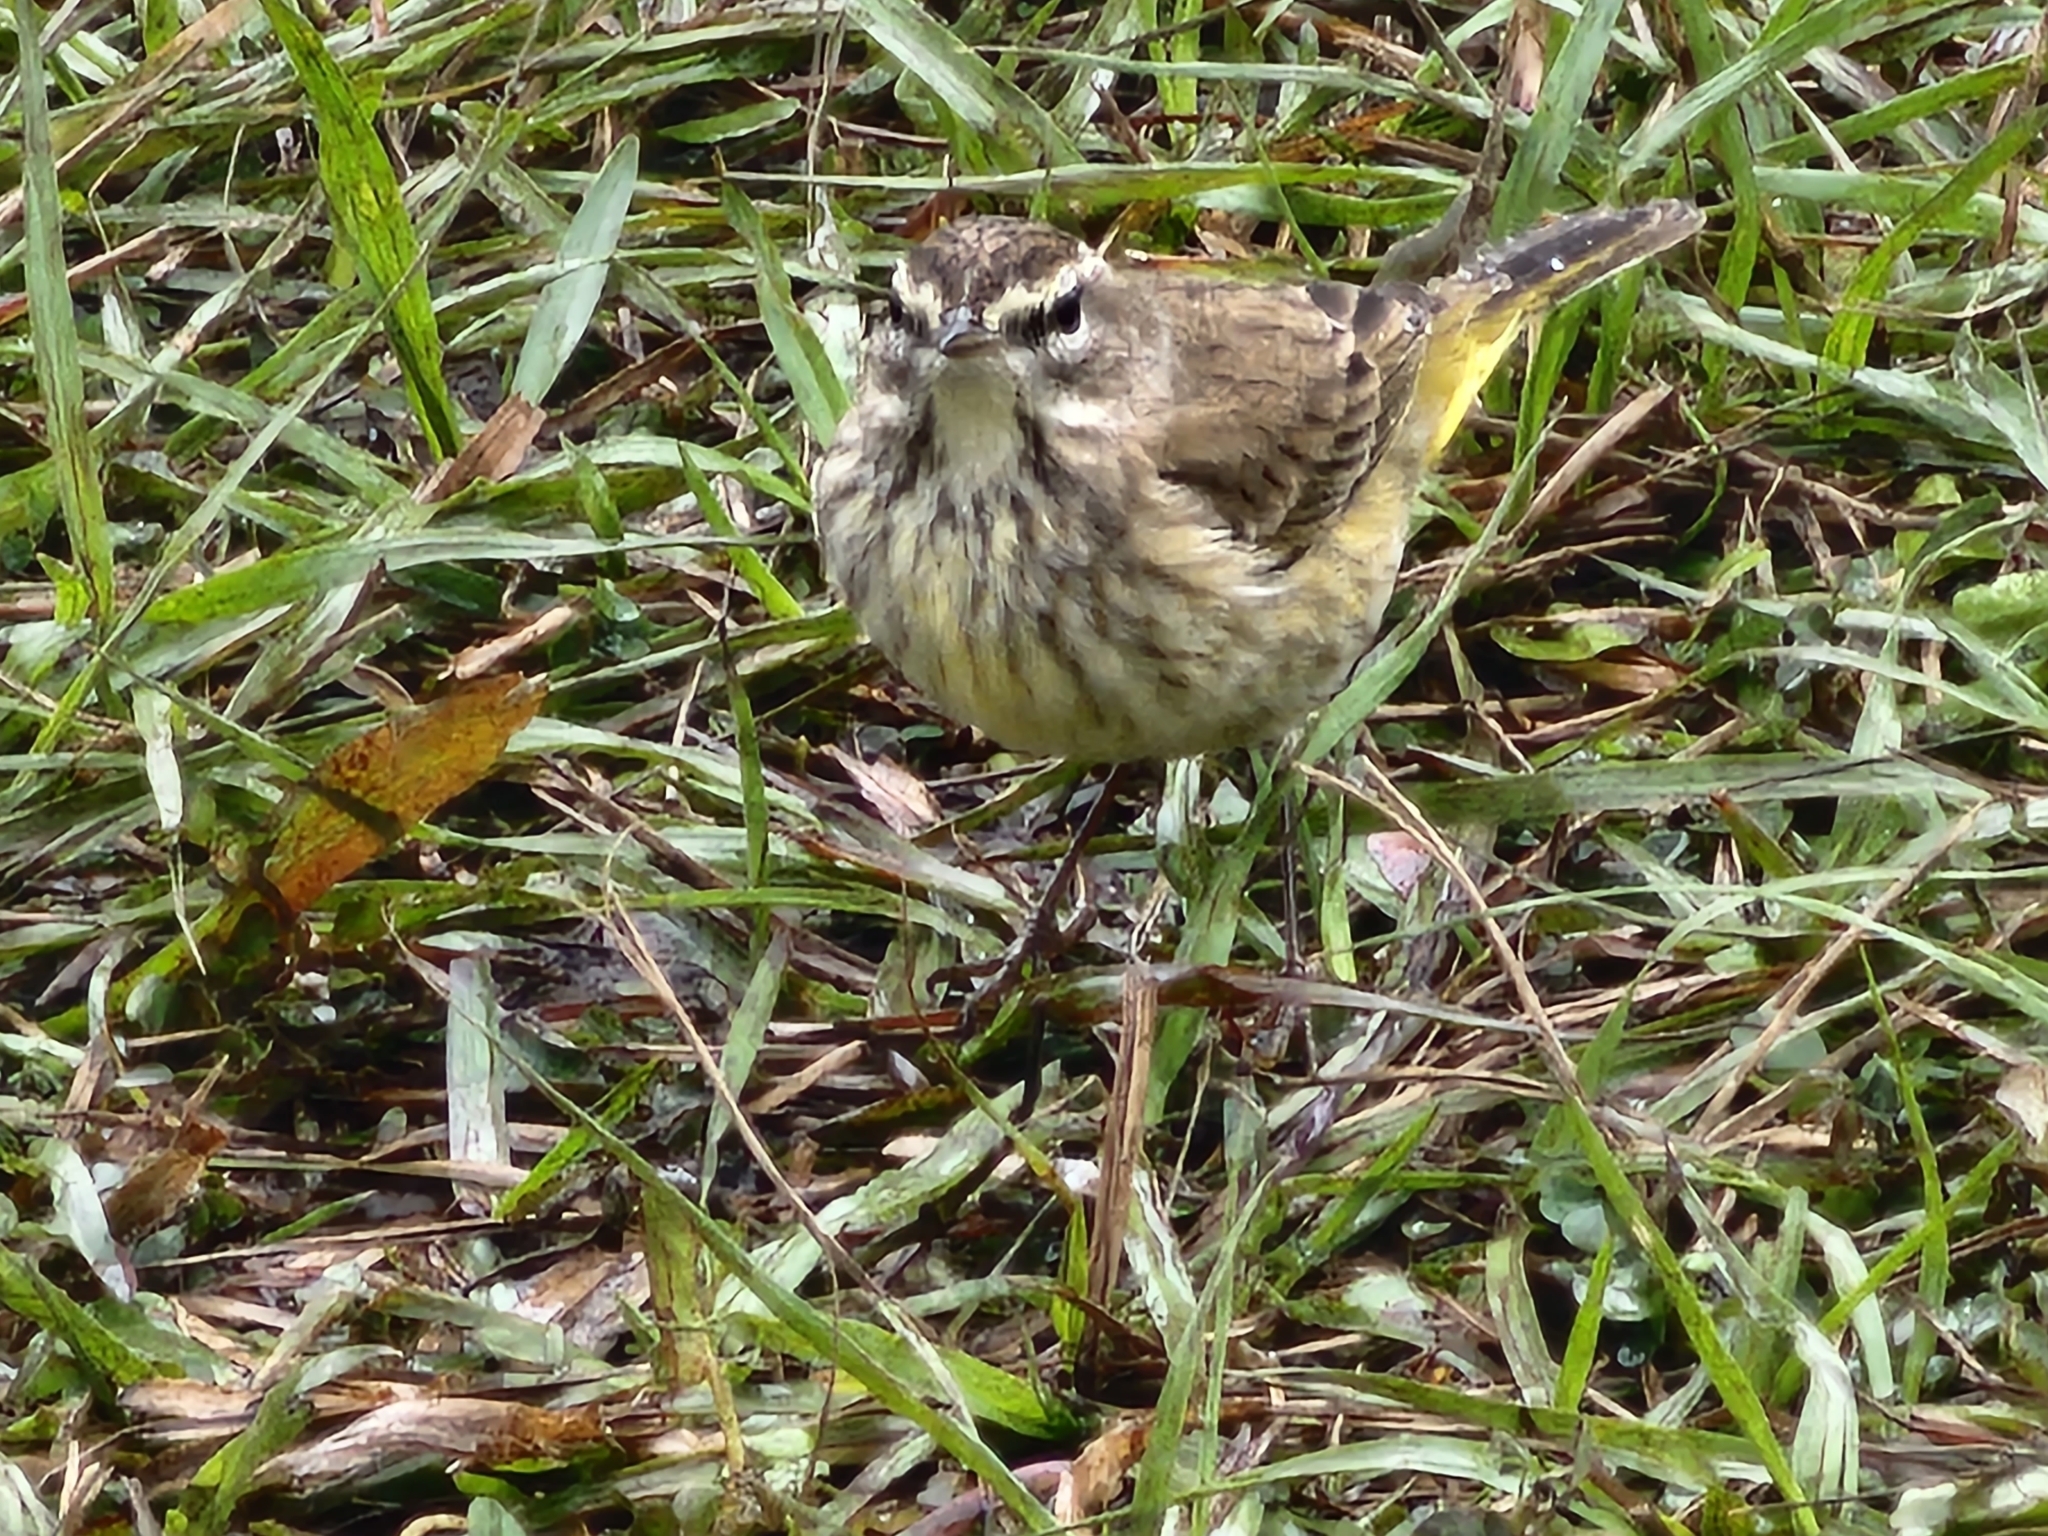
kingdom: Animalia
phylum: Chordata
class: Aves
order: Passeriformes
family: Parulidae
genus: Setophaga
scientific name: Setophaga palmarum
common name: Palm warbler
